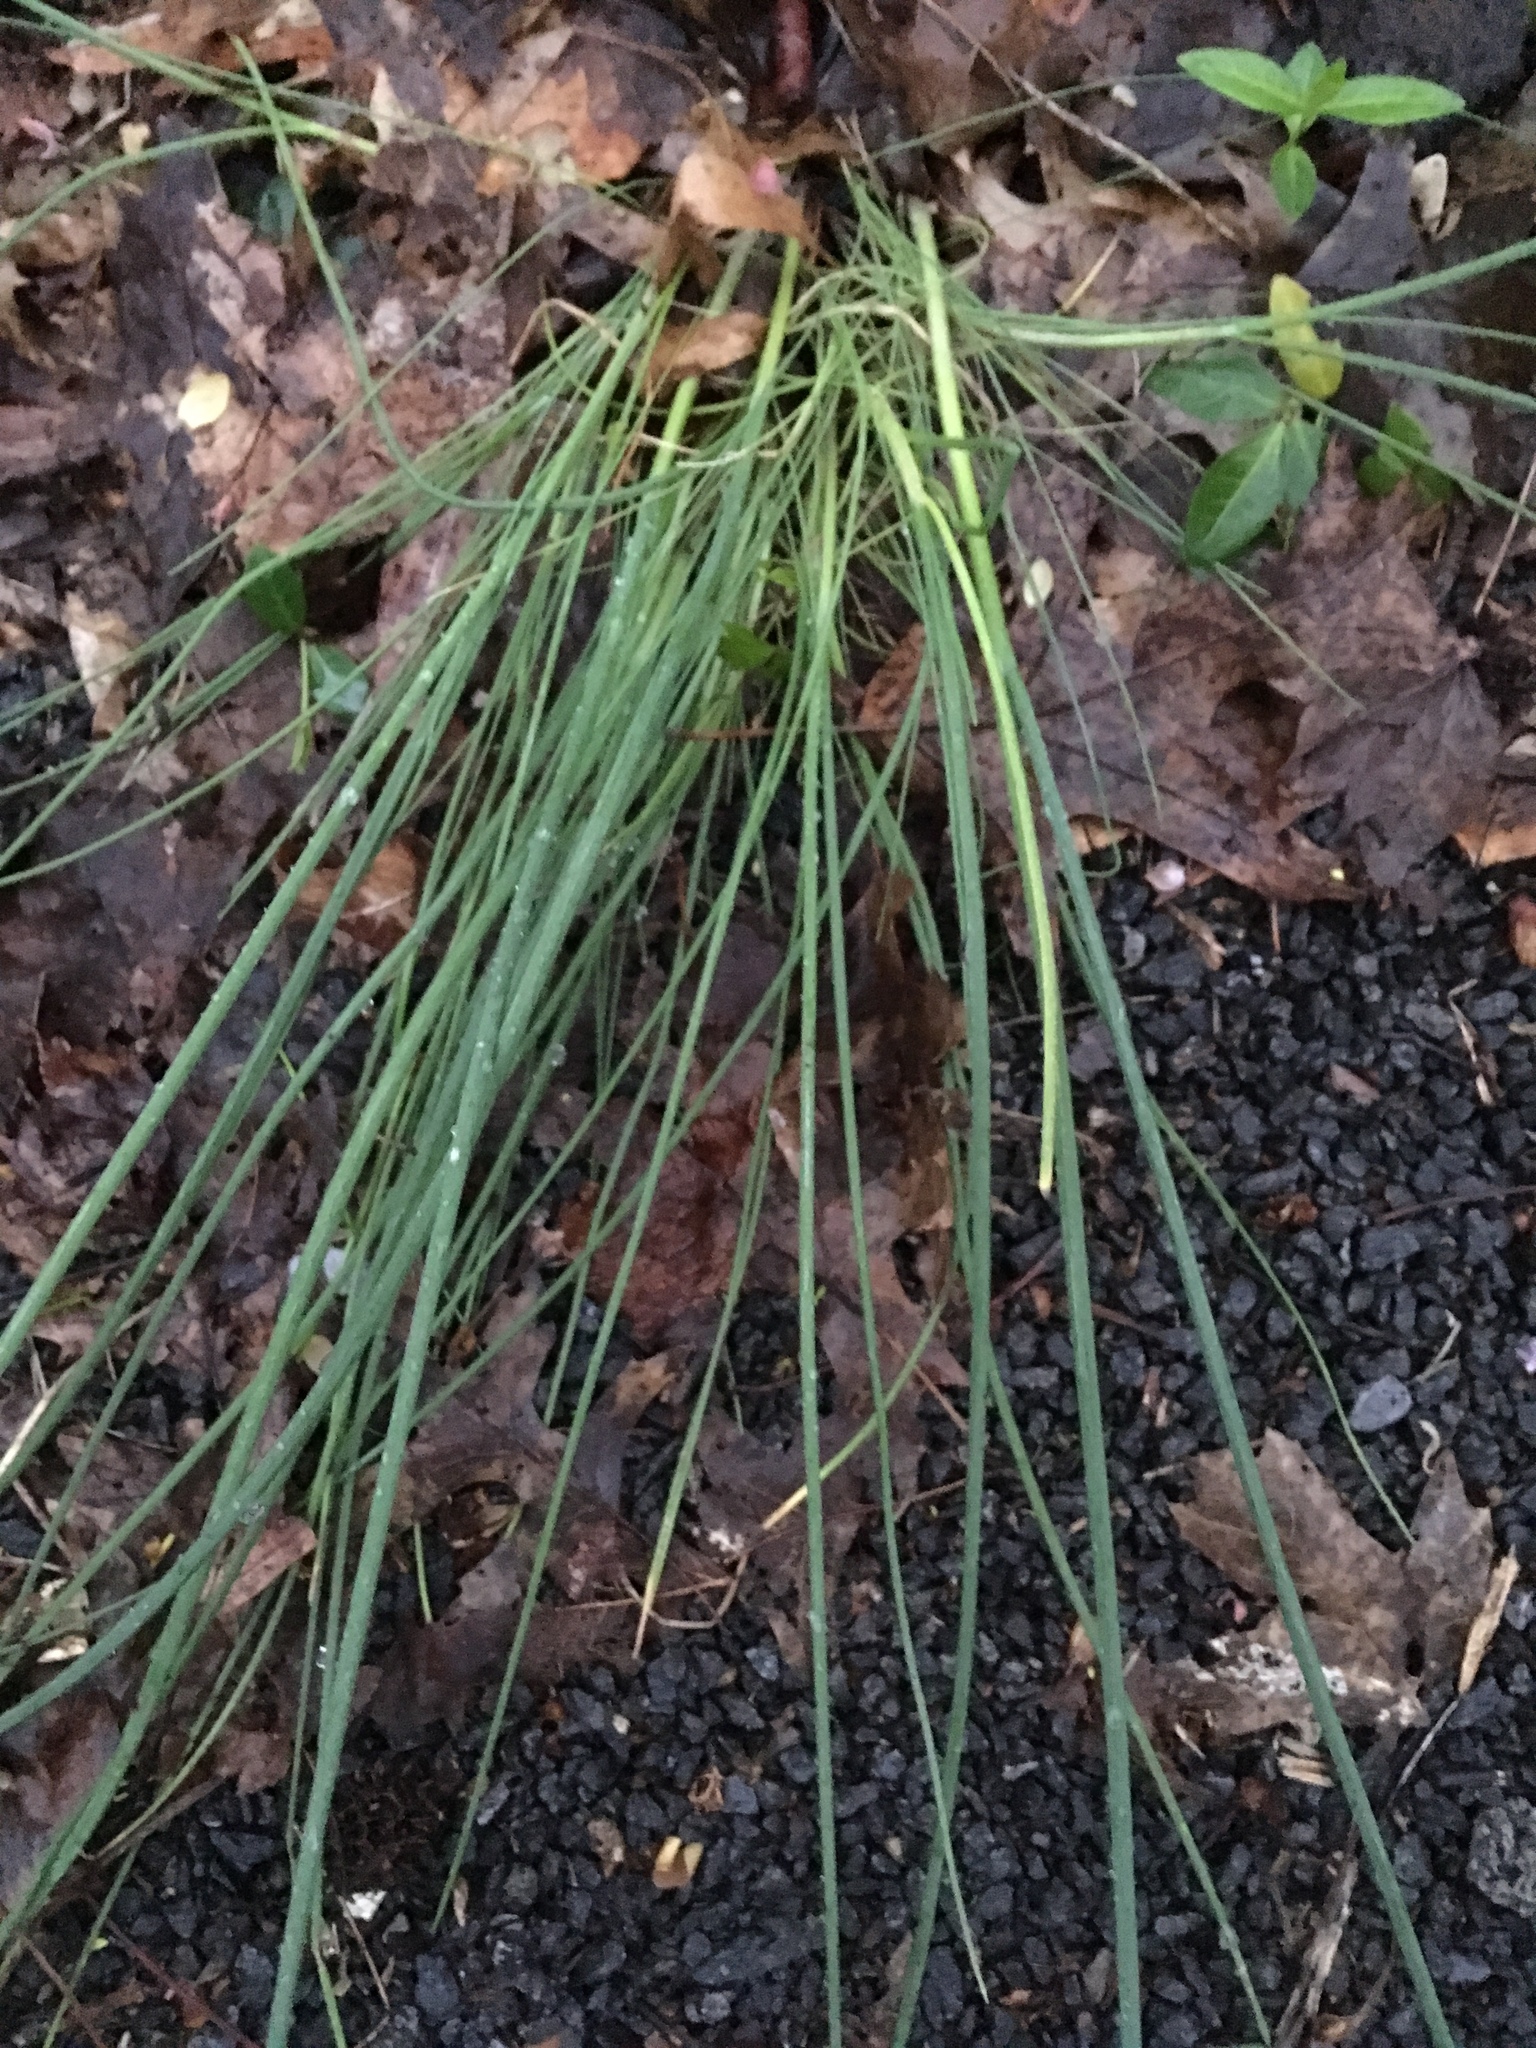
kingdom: Plantae
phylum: Tracheophyta
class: Liliopsida
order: Asparagales
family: Amaryllidaceae
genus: Allium
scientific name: Allium vineale
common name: Crow garlic
